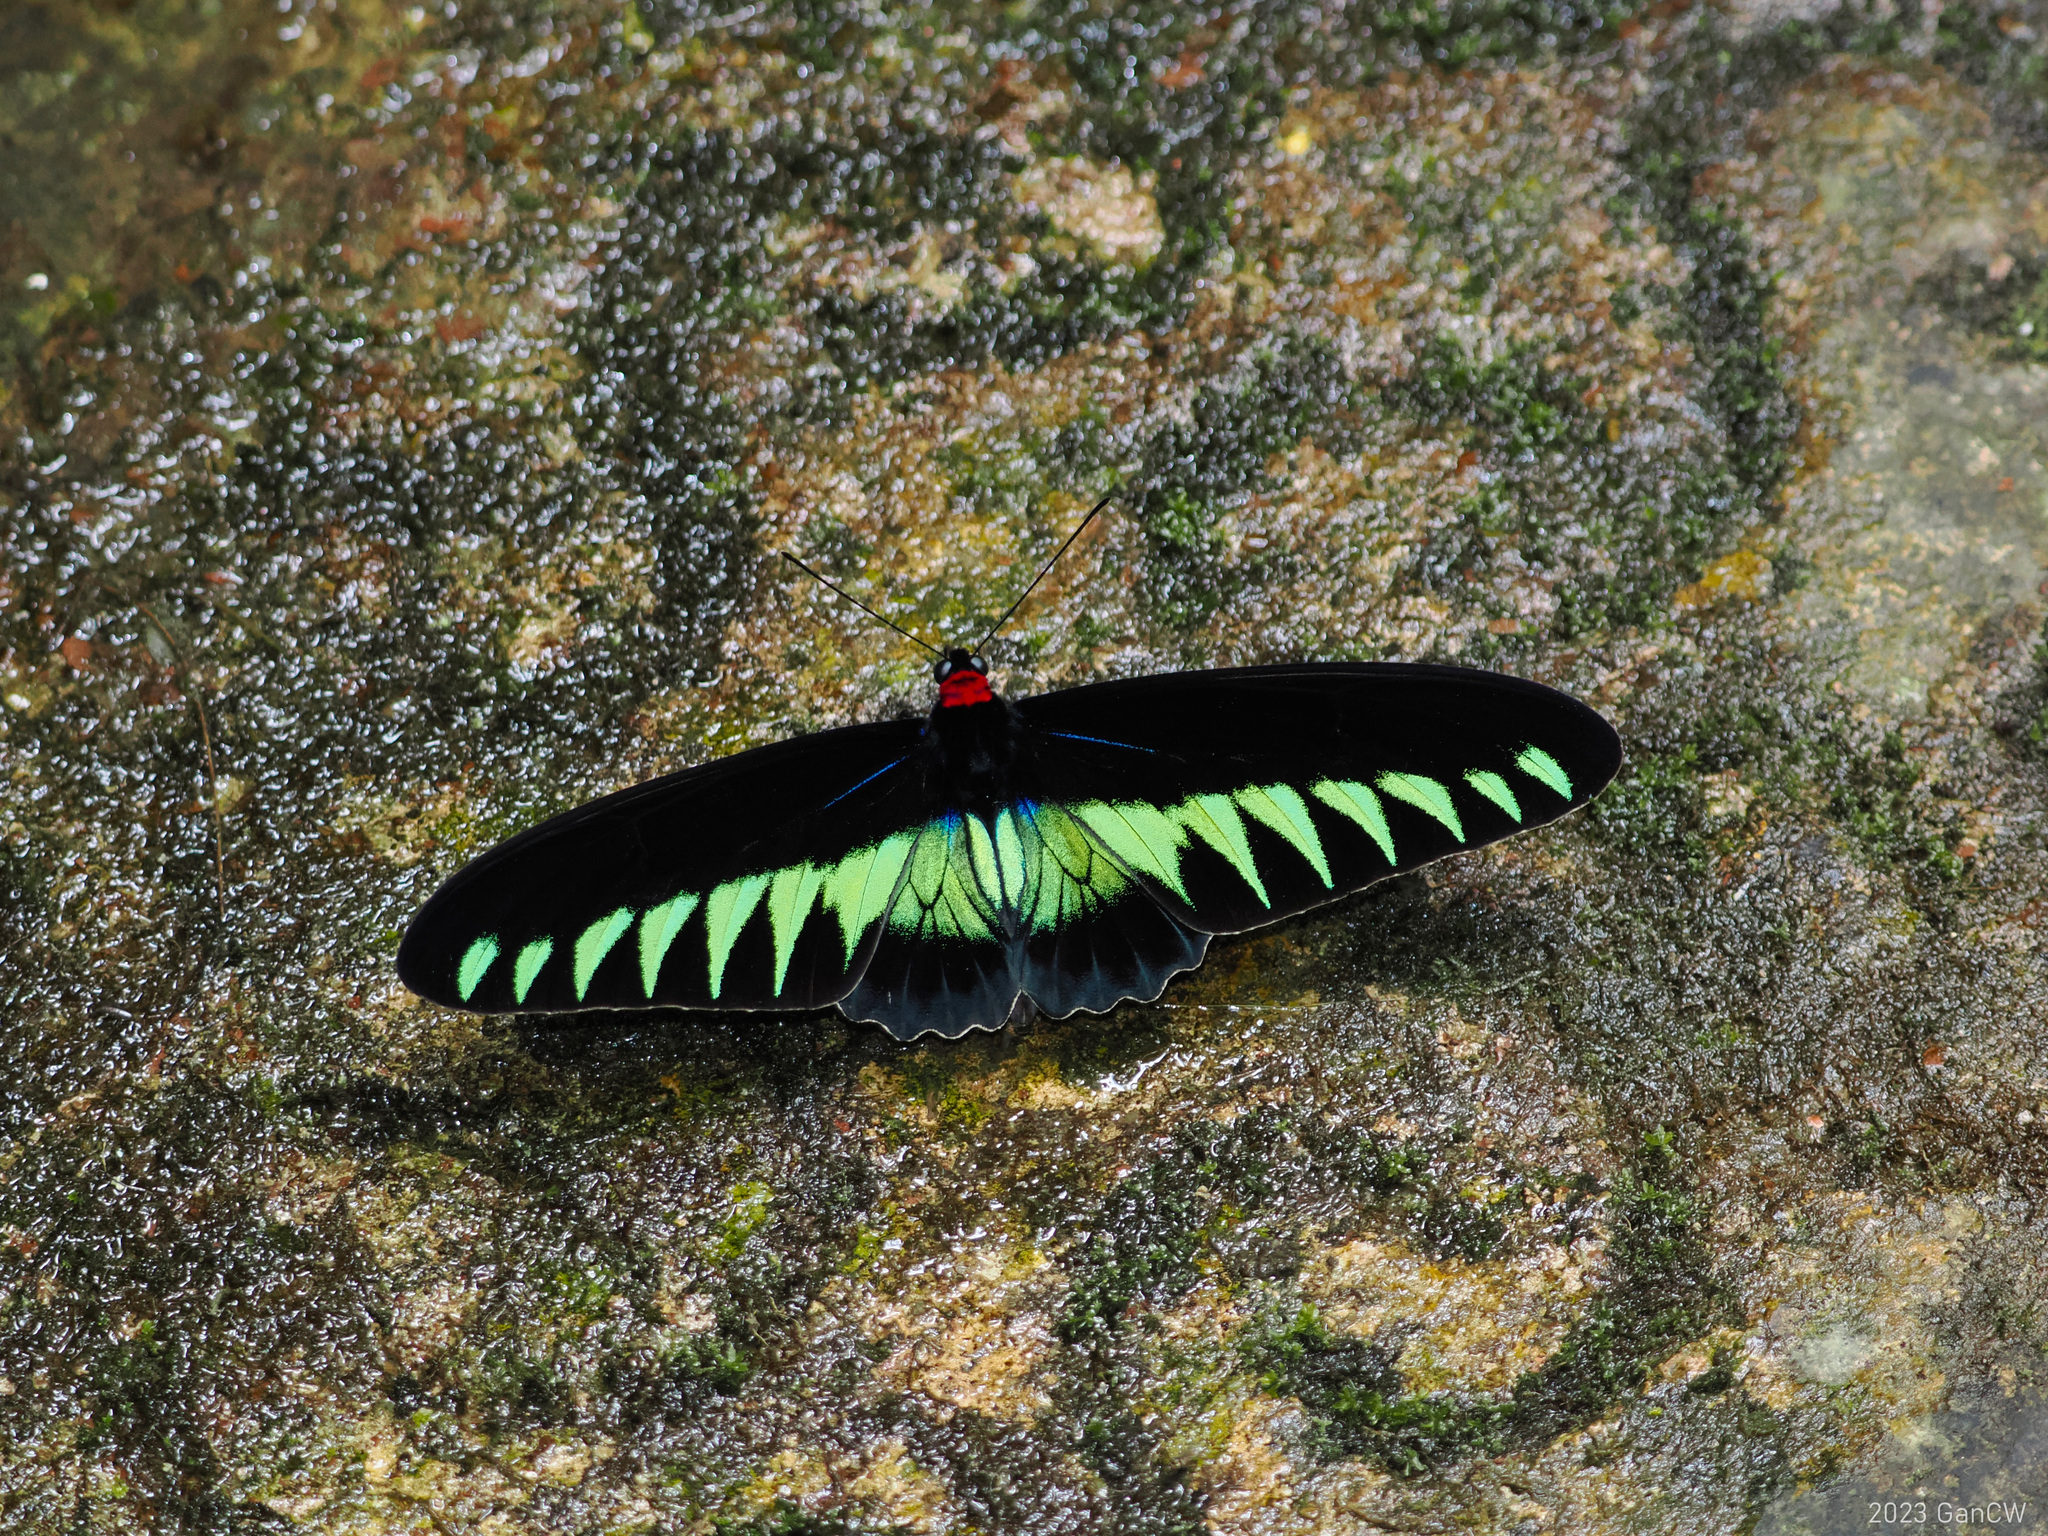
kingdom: Animalia
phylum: Arthropoda
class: Insecta
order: Lepidoptera
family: Papilionidae
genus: Trogonoptera
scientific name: Trogonoptera brookiana
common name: Raja brooke's birdwing
